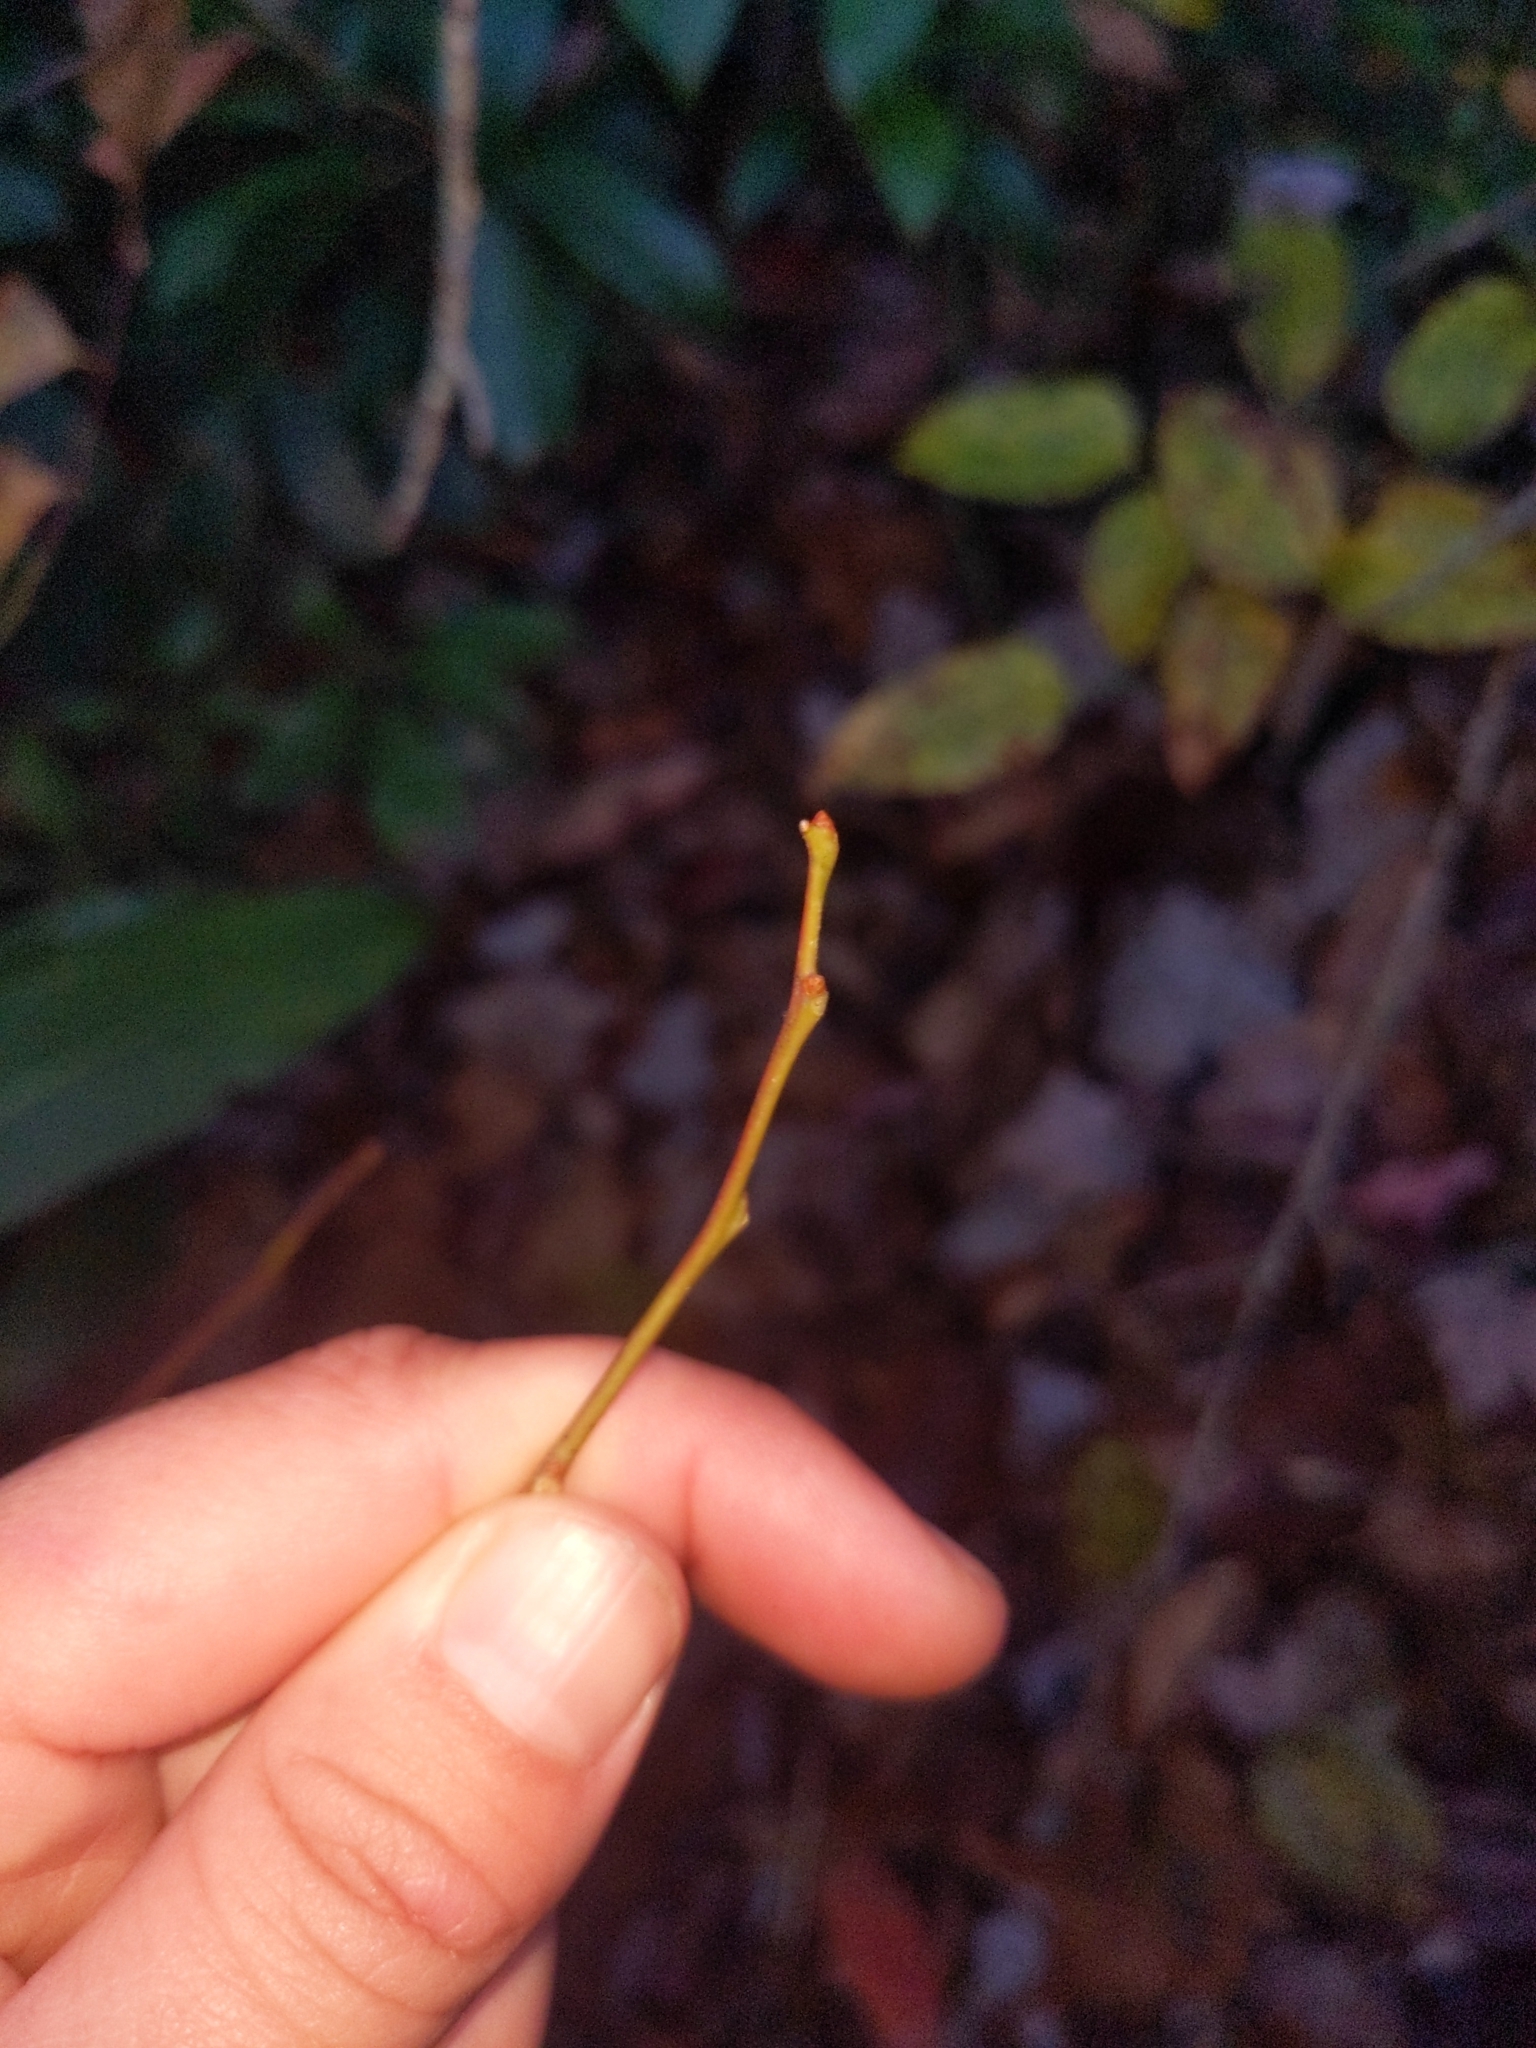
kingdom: Plantae
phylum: Tracheophyta
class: Magnoliopsida
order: Ericales
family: Ericaceae
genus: Oxydendrum
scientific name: Oxydendrum arboreum
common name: Sourwood
